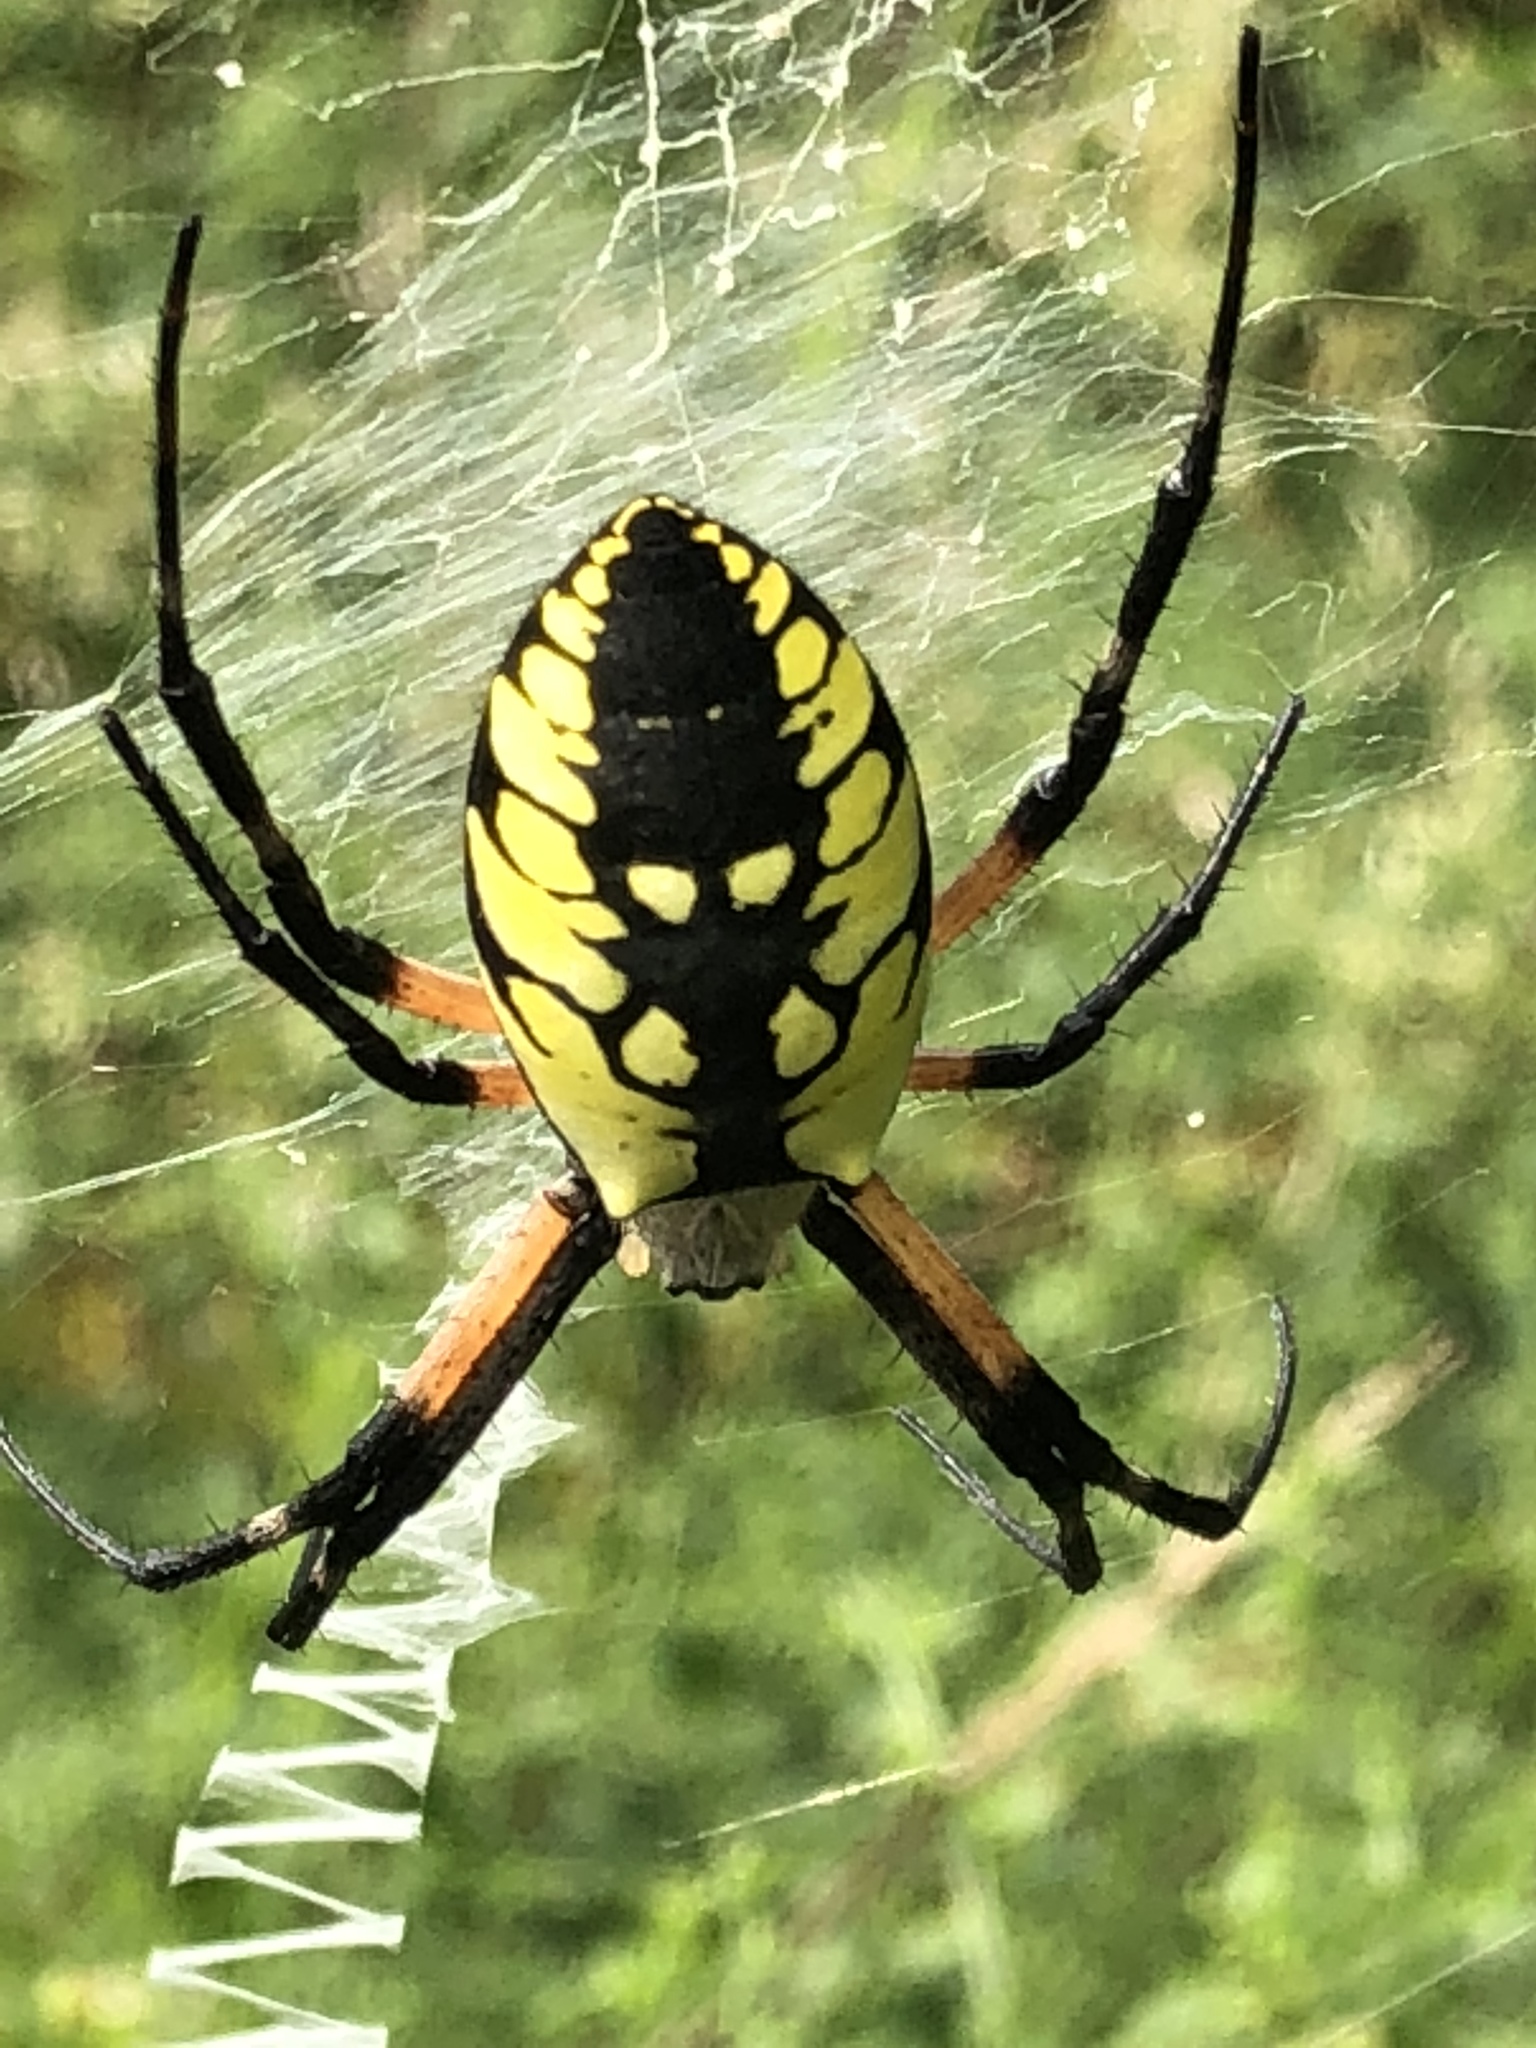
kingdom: Animalia
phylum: Arthropoda
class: Arachnida
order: Araneae
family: Araneidae
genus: Argiope
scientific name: Argiope aurantia
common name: Orb weavers
